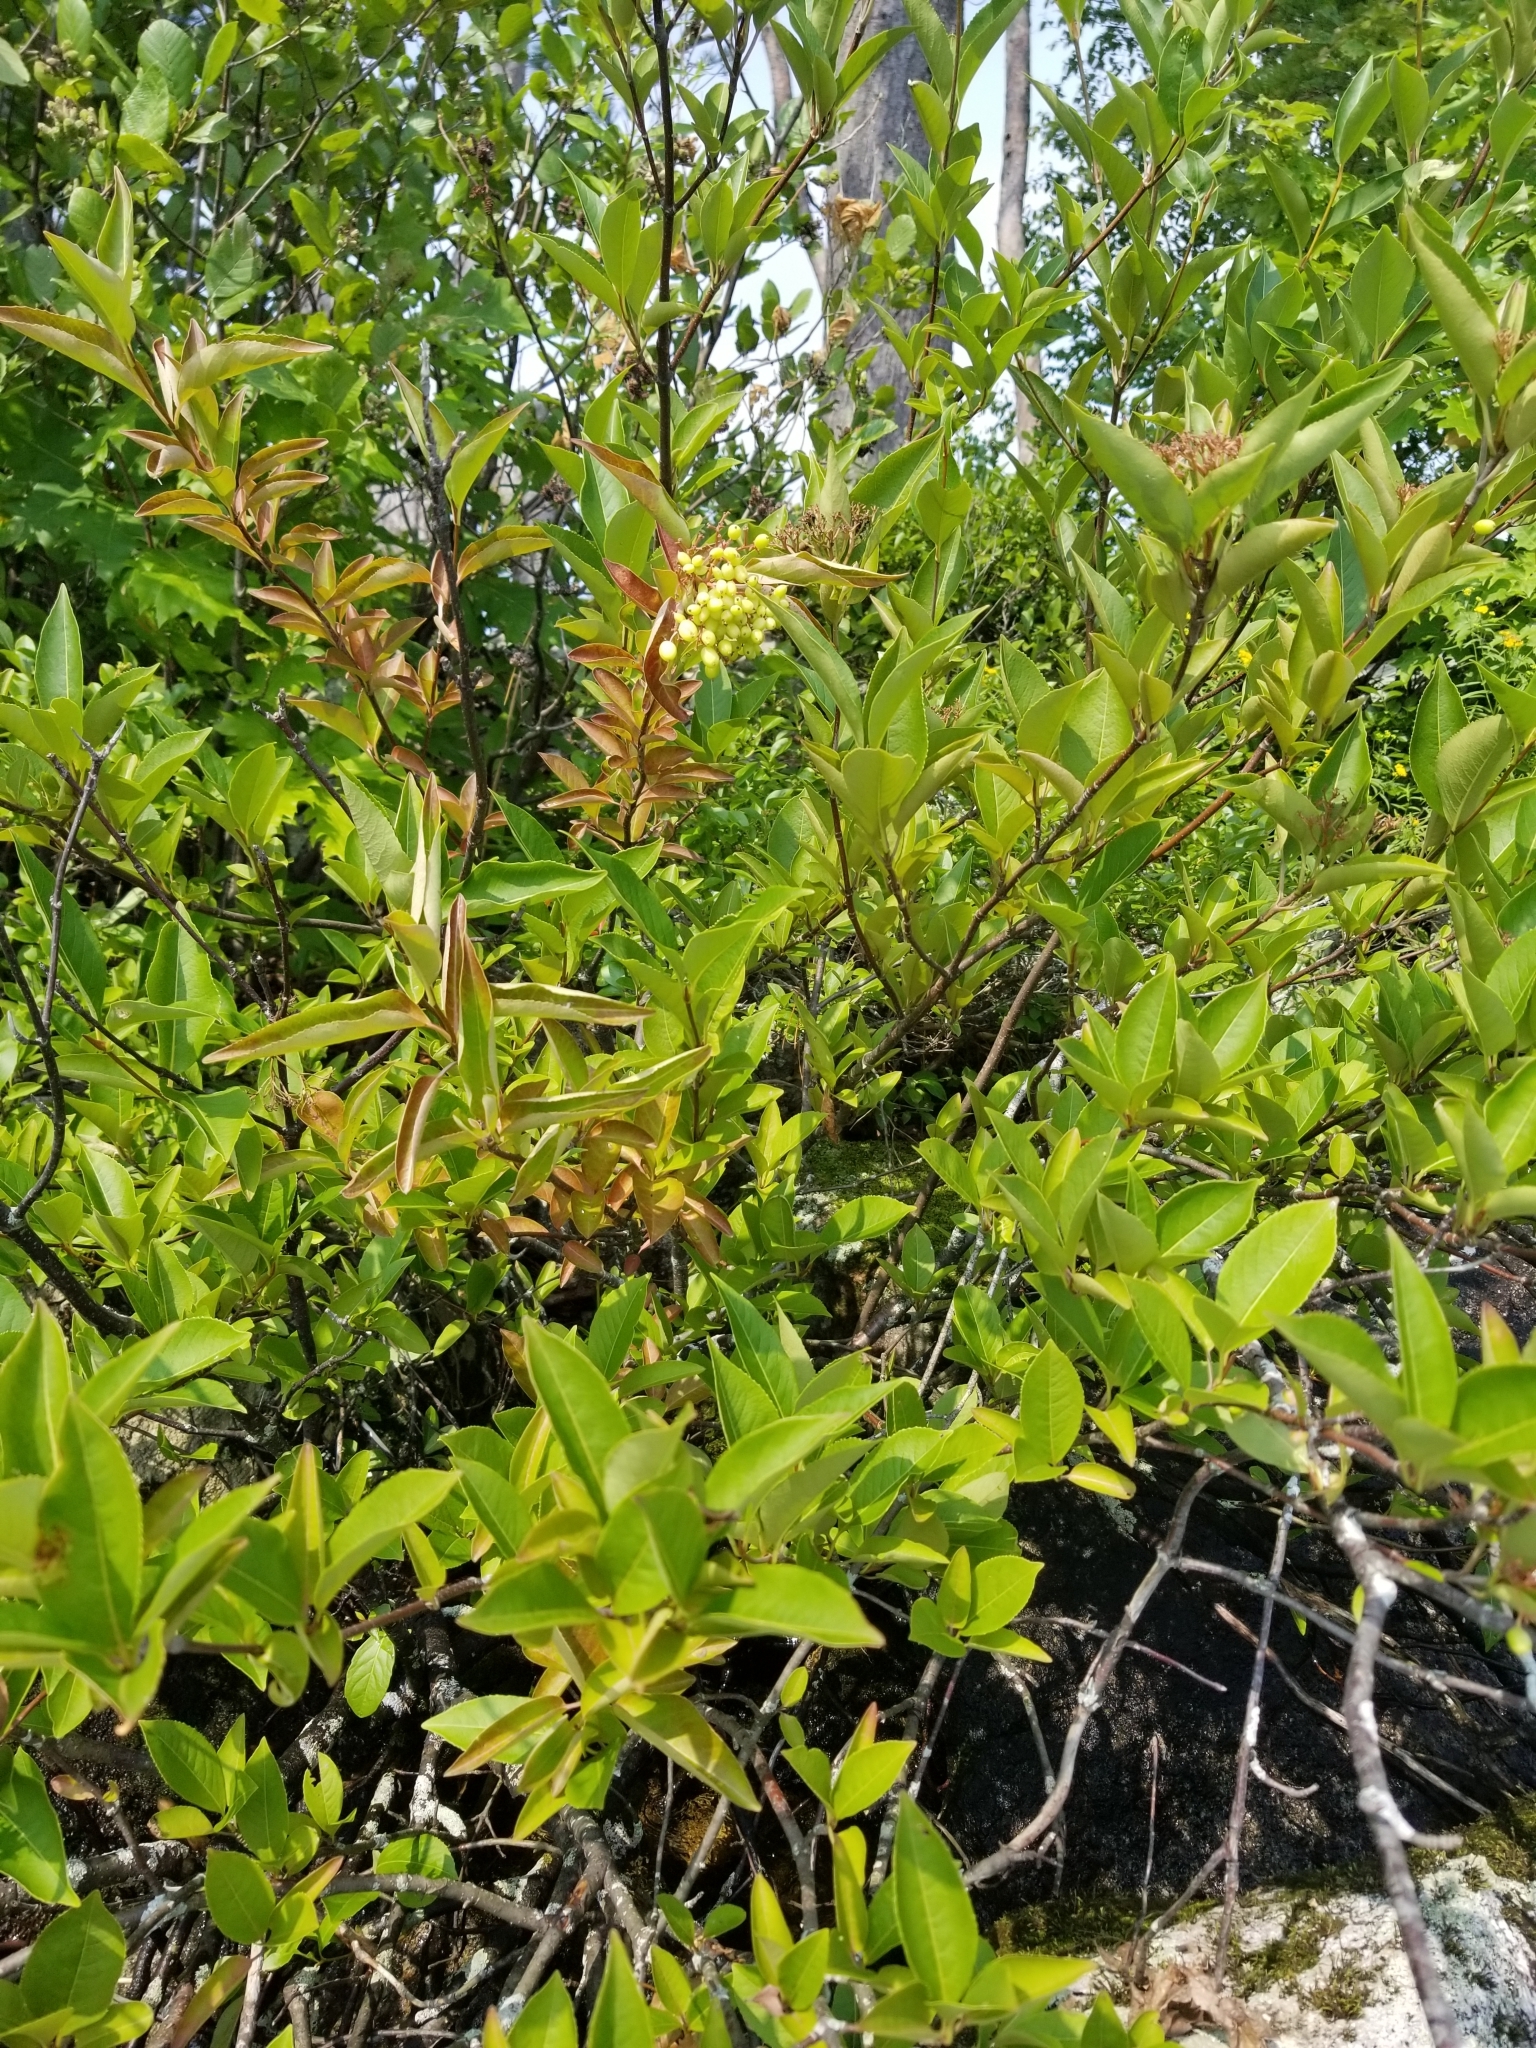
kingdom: Plantae
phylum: Tracheophyta
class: Magnoliopsida
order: Dipsacales
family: Viburnaceae
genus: Viburnum
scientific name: Viburnum cassinoides
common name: Swamp haw
